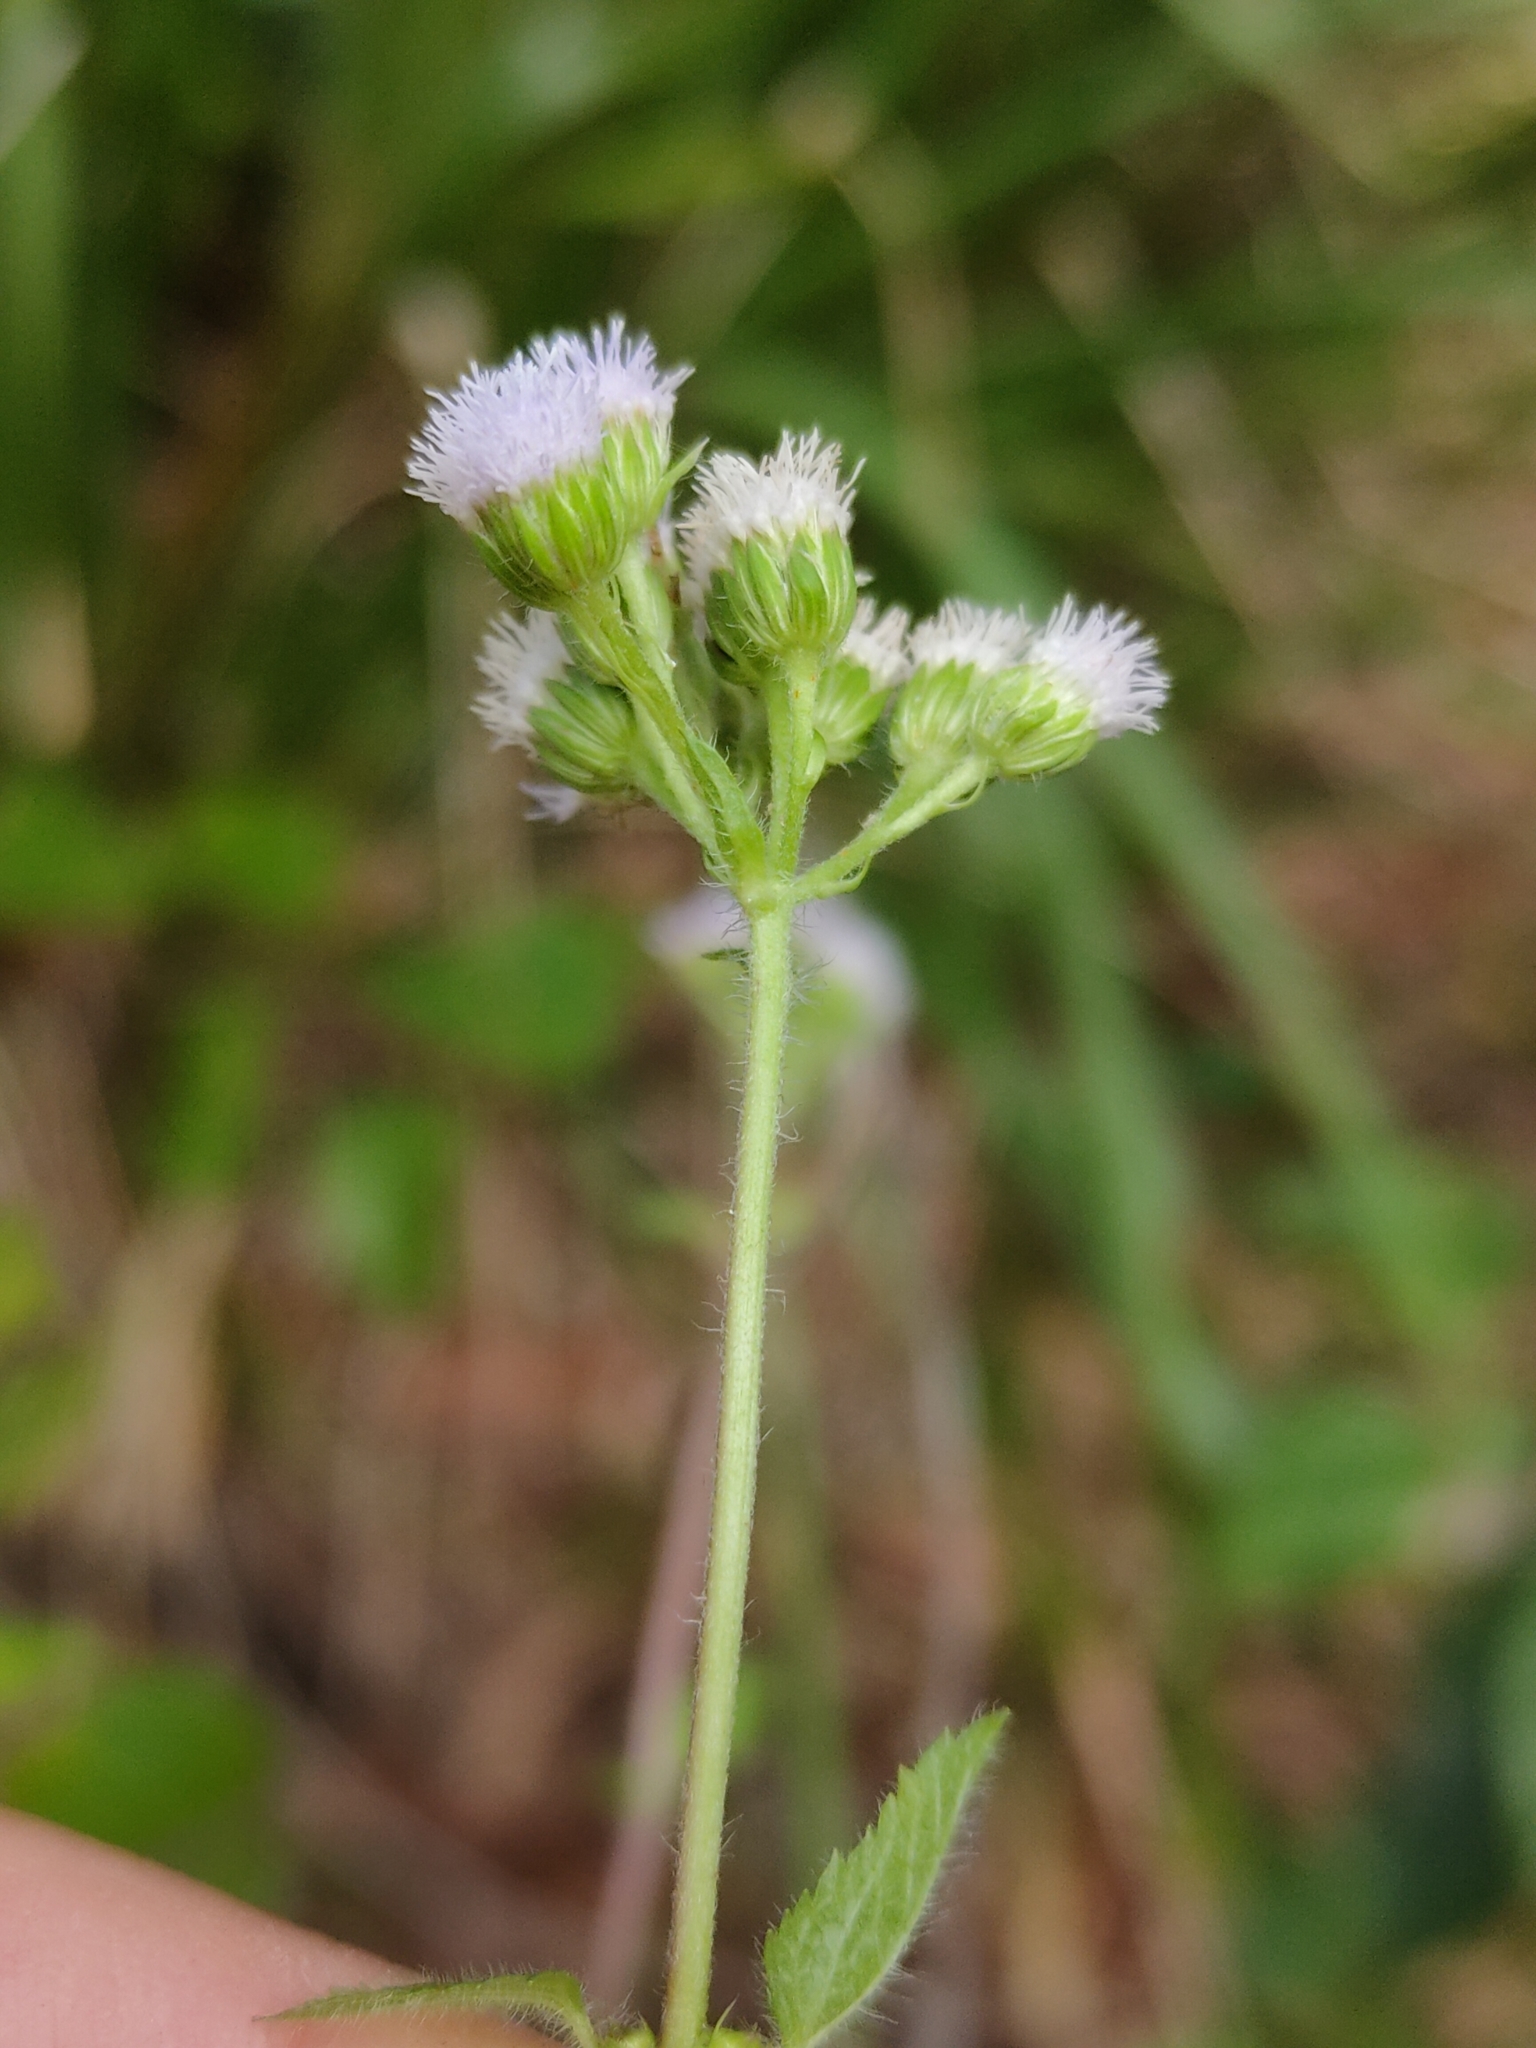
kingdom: Plantae
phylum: Tracheophyta
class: Magnoliopsida
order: Asterales
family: Asteraceae
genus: Ageratum
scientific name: Ageratum conyzoides
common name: Tropical whiteweed
